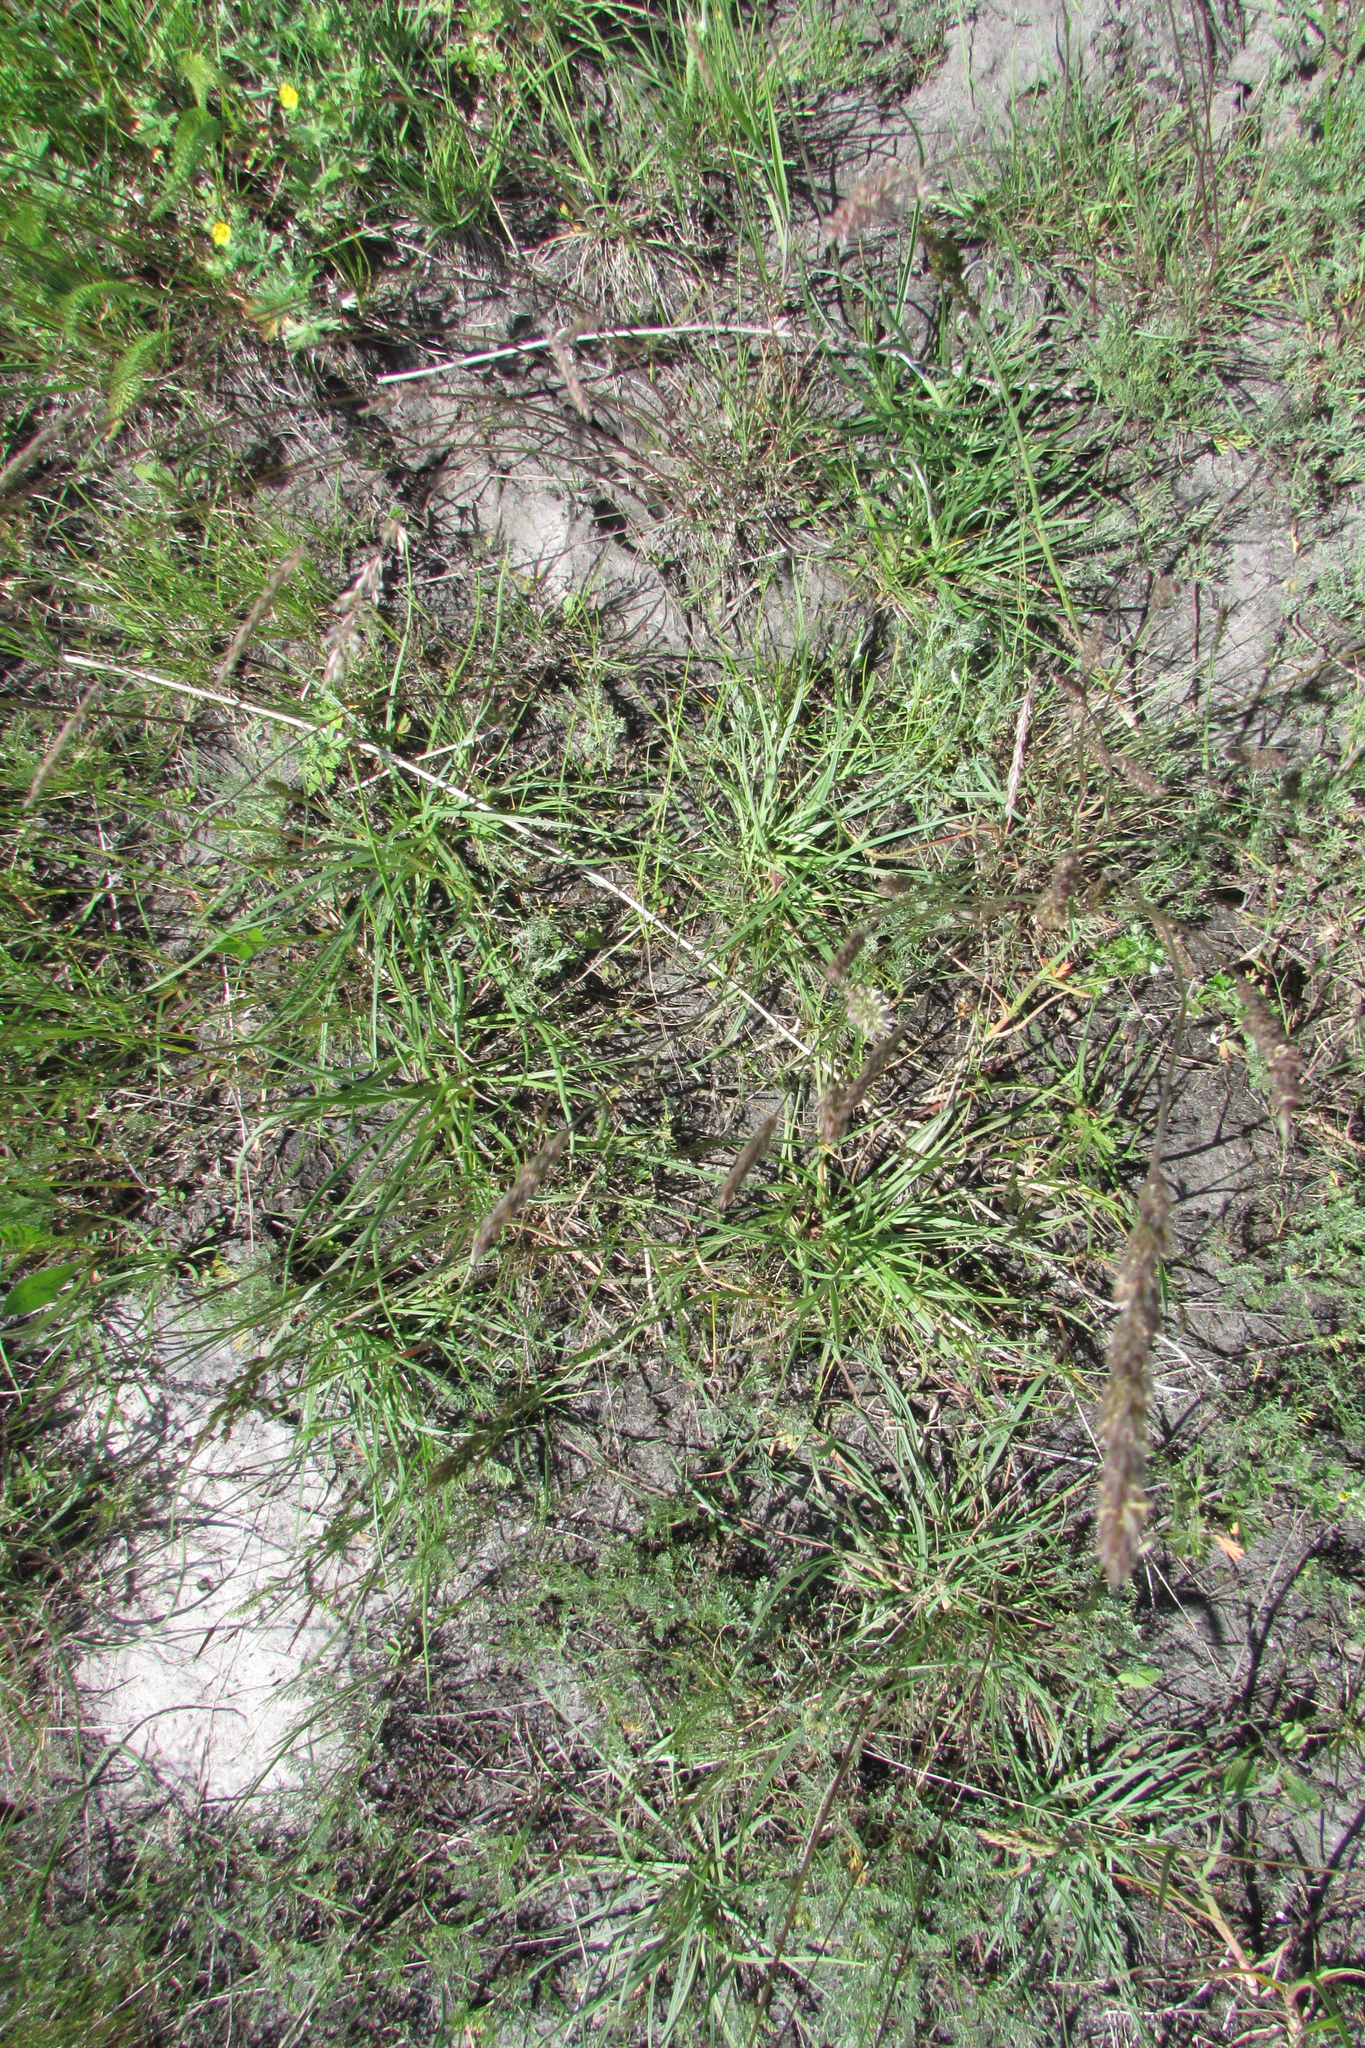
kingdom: Plantae
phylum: Tracheophyta
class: Magnoliopsida
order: Lamiales
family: Plantaginaceae
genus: Plantago
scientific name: Plantago salsa
